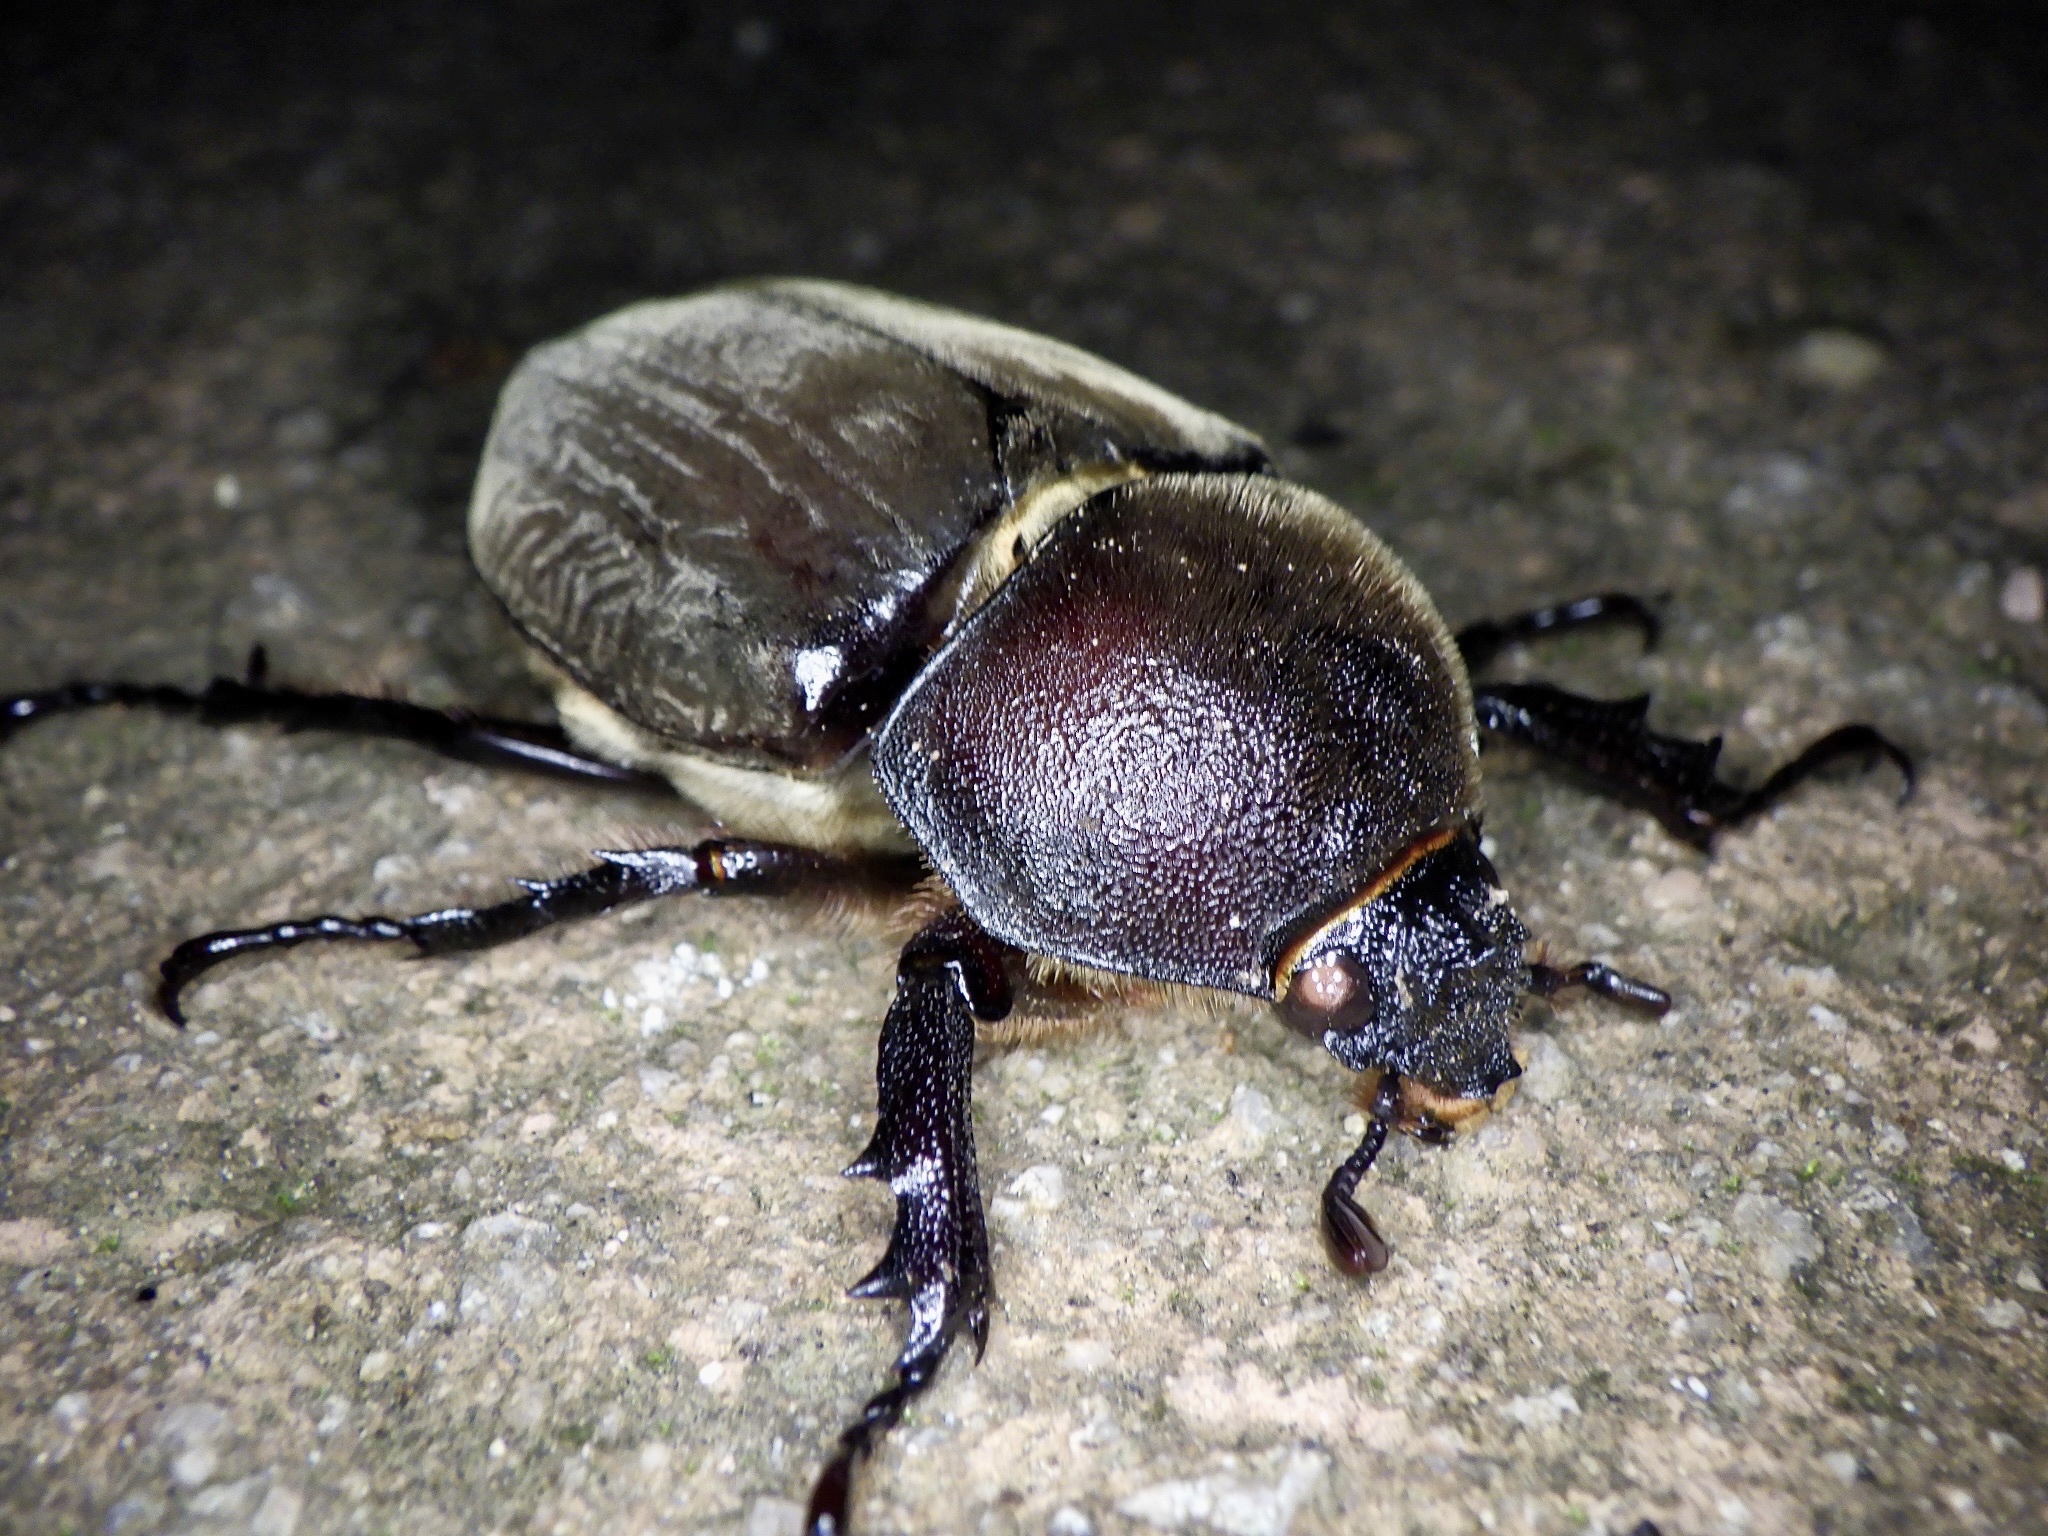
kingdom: Animalia
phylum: Arthropoda
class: Insecta
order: Coleoptera
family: Scarabaeidae
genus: Trypoxylus
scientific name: Trypoxylus dichotomus
